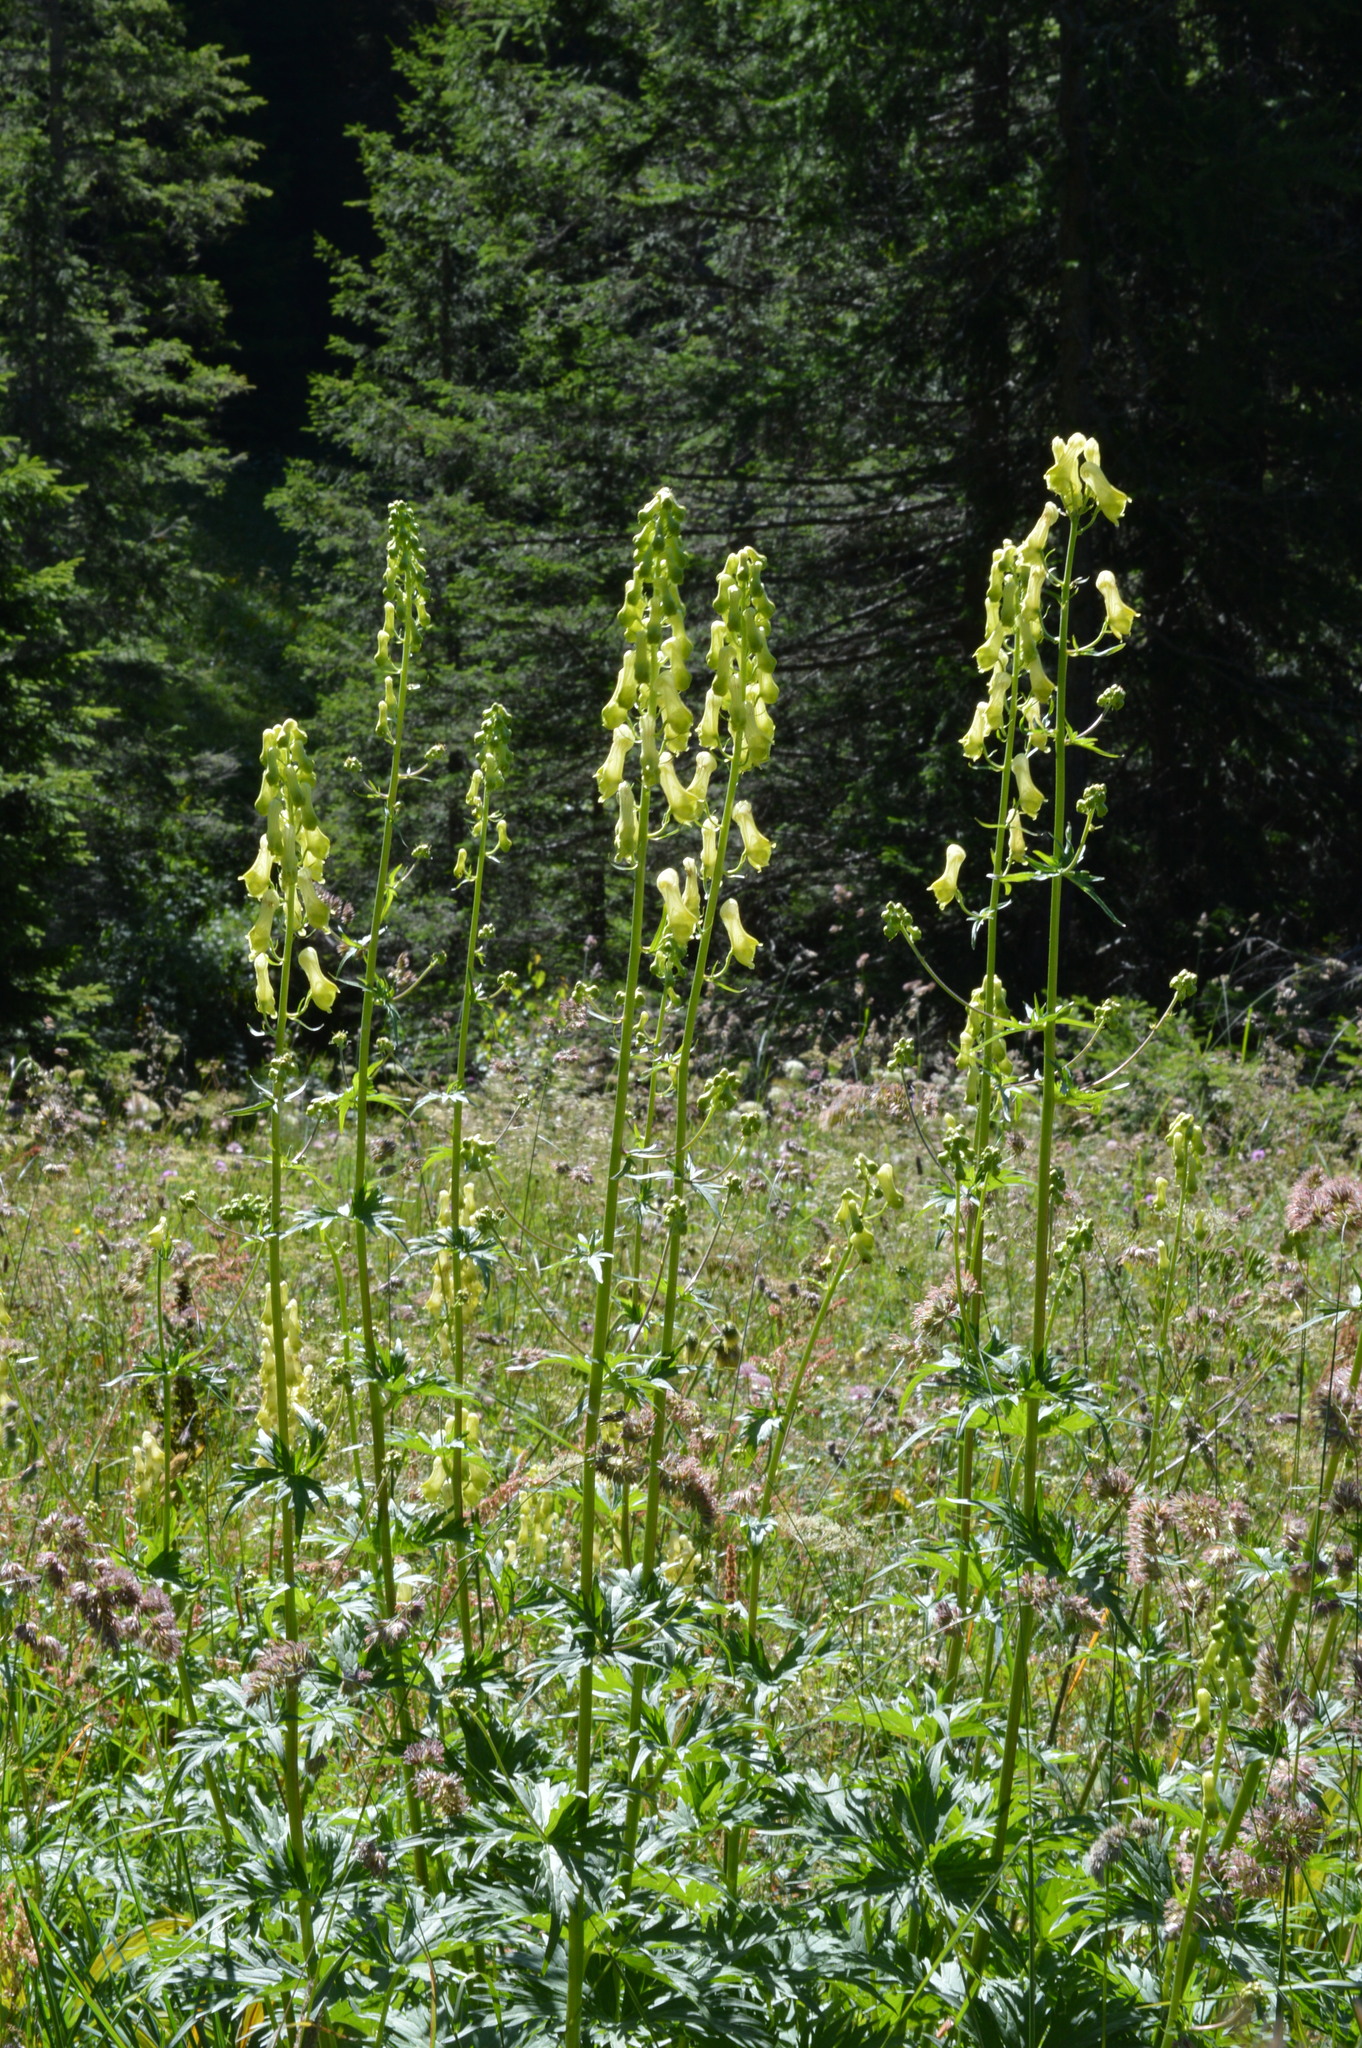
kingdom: Plantae
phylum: Tracheophyta
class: Magnoliopsida
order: Ranunculales
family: Ranunculaceae
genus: Aconitum
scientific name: Aconitum lycoctonum
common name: Wolf's-bane
